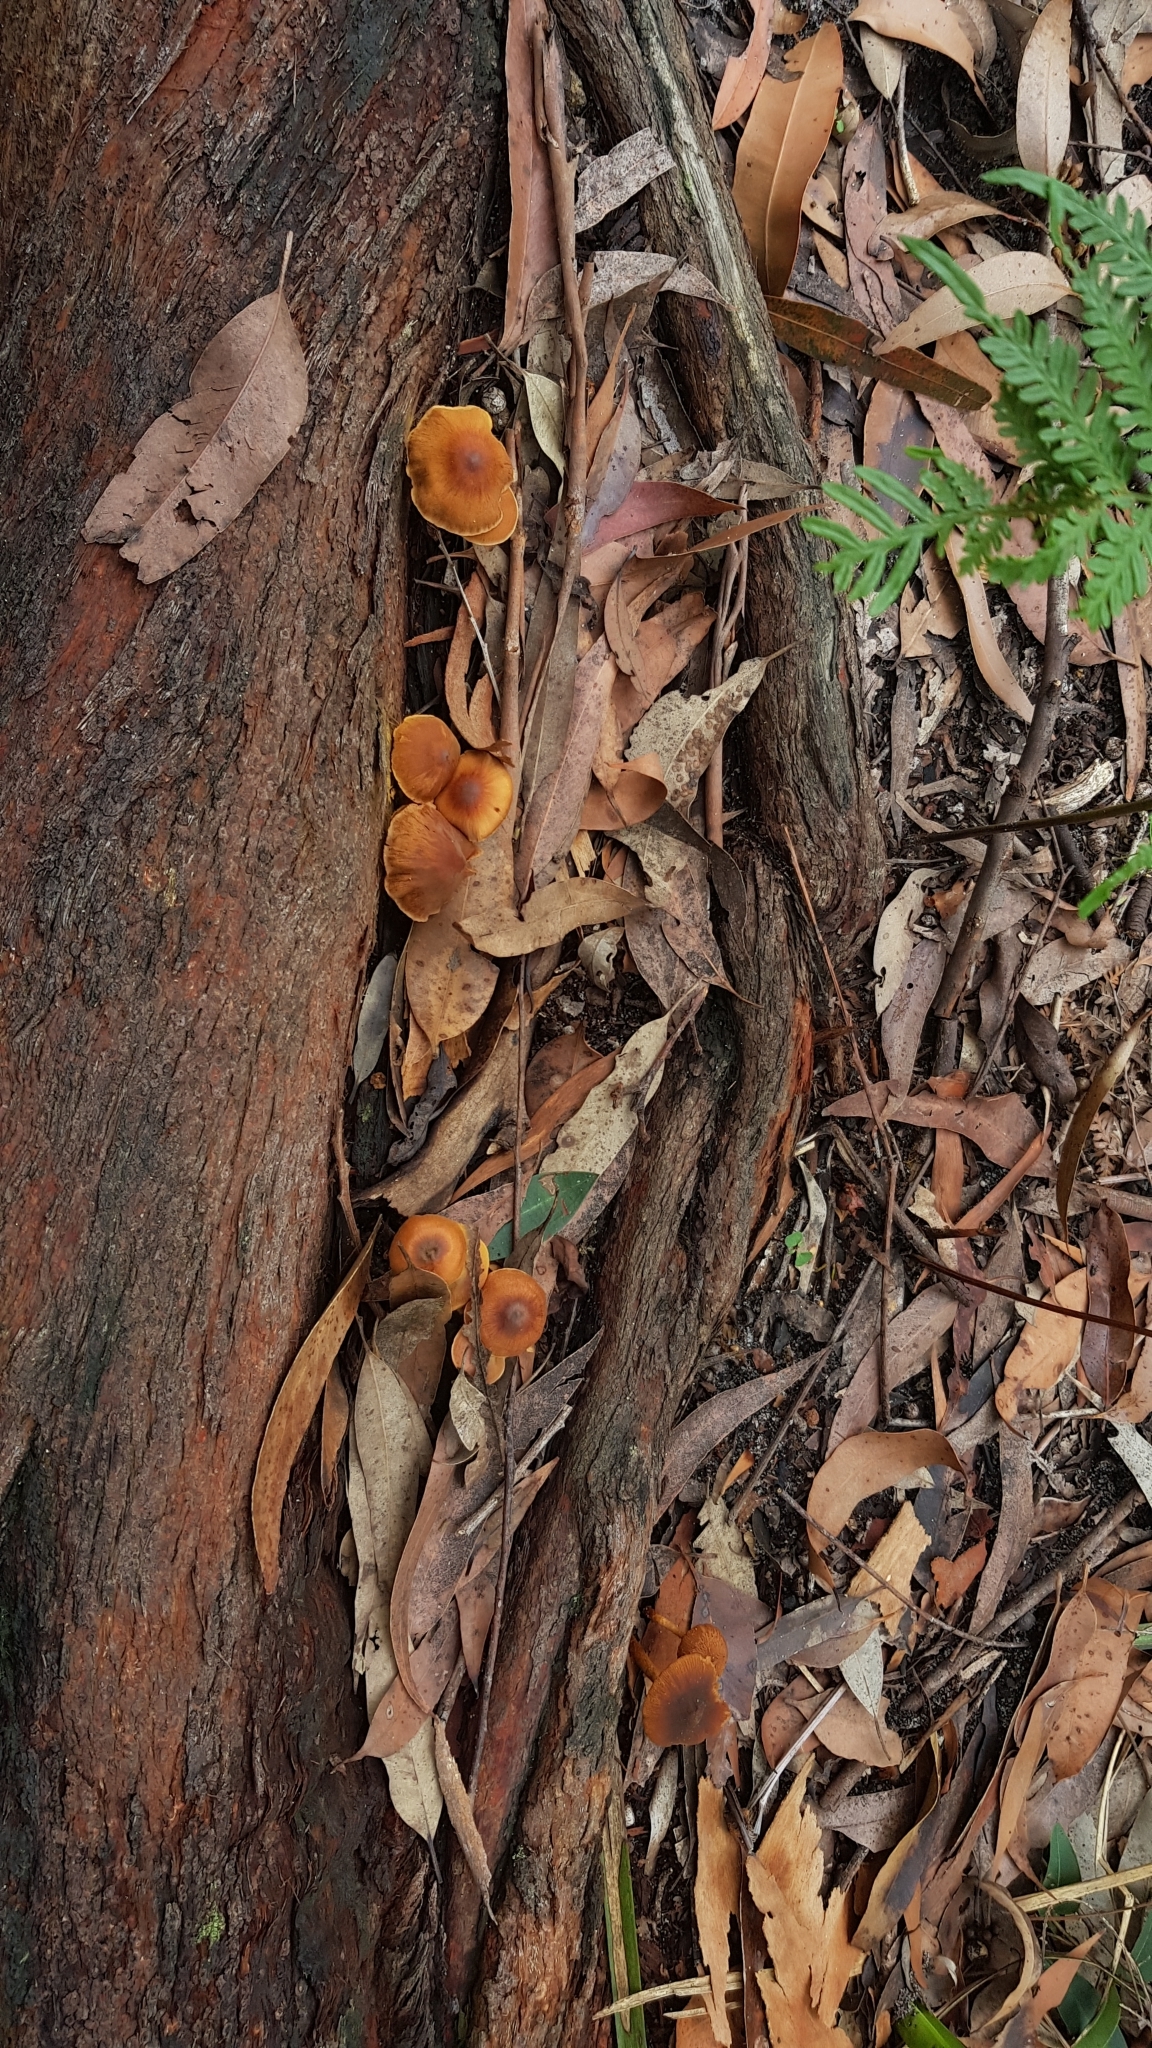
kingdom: Fungi
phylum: Basidiomycota
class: Agaricomycetes
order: Agaricales
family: Bolbitiaceae
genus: Descolea
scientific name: Descolea recedens
